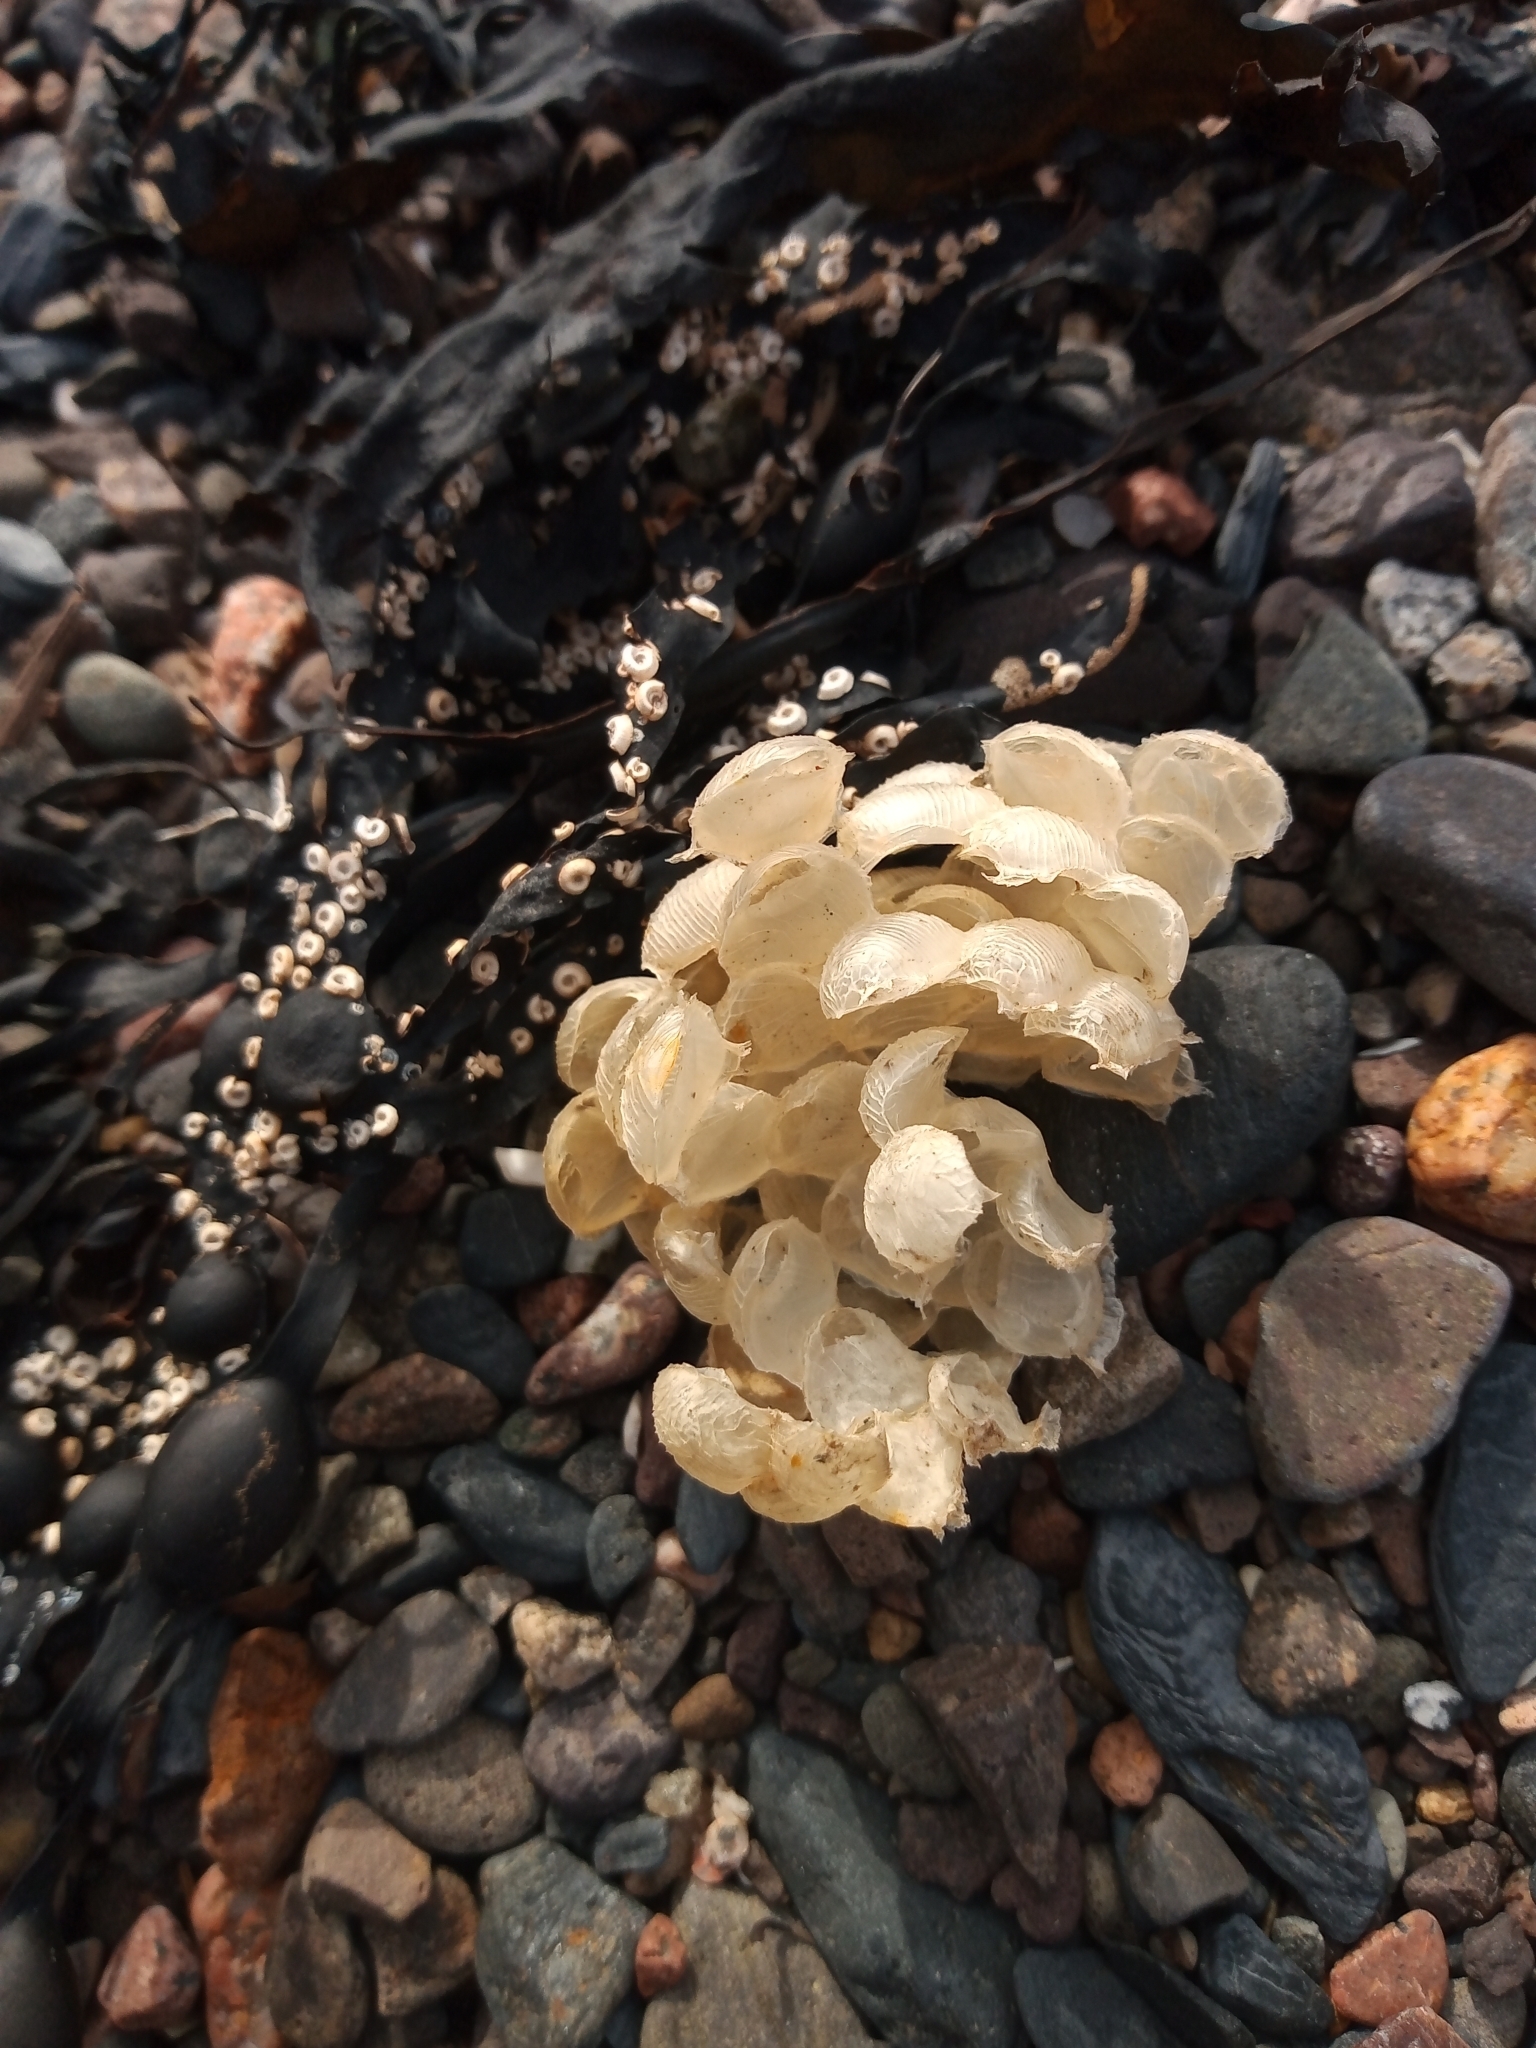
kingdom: Animalia
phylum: Mollusca
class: Gastropoda
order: Neogastropoda
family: Buccinidae
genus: Buccinum
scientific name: Buccinum undatum
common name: Common whelk
